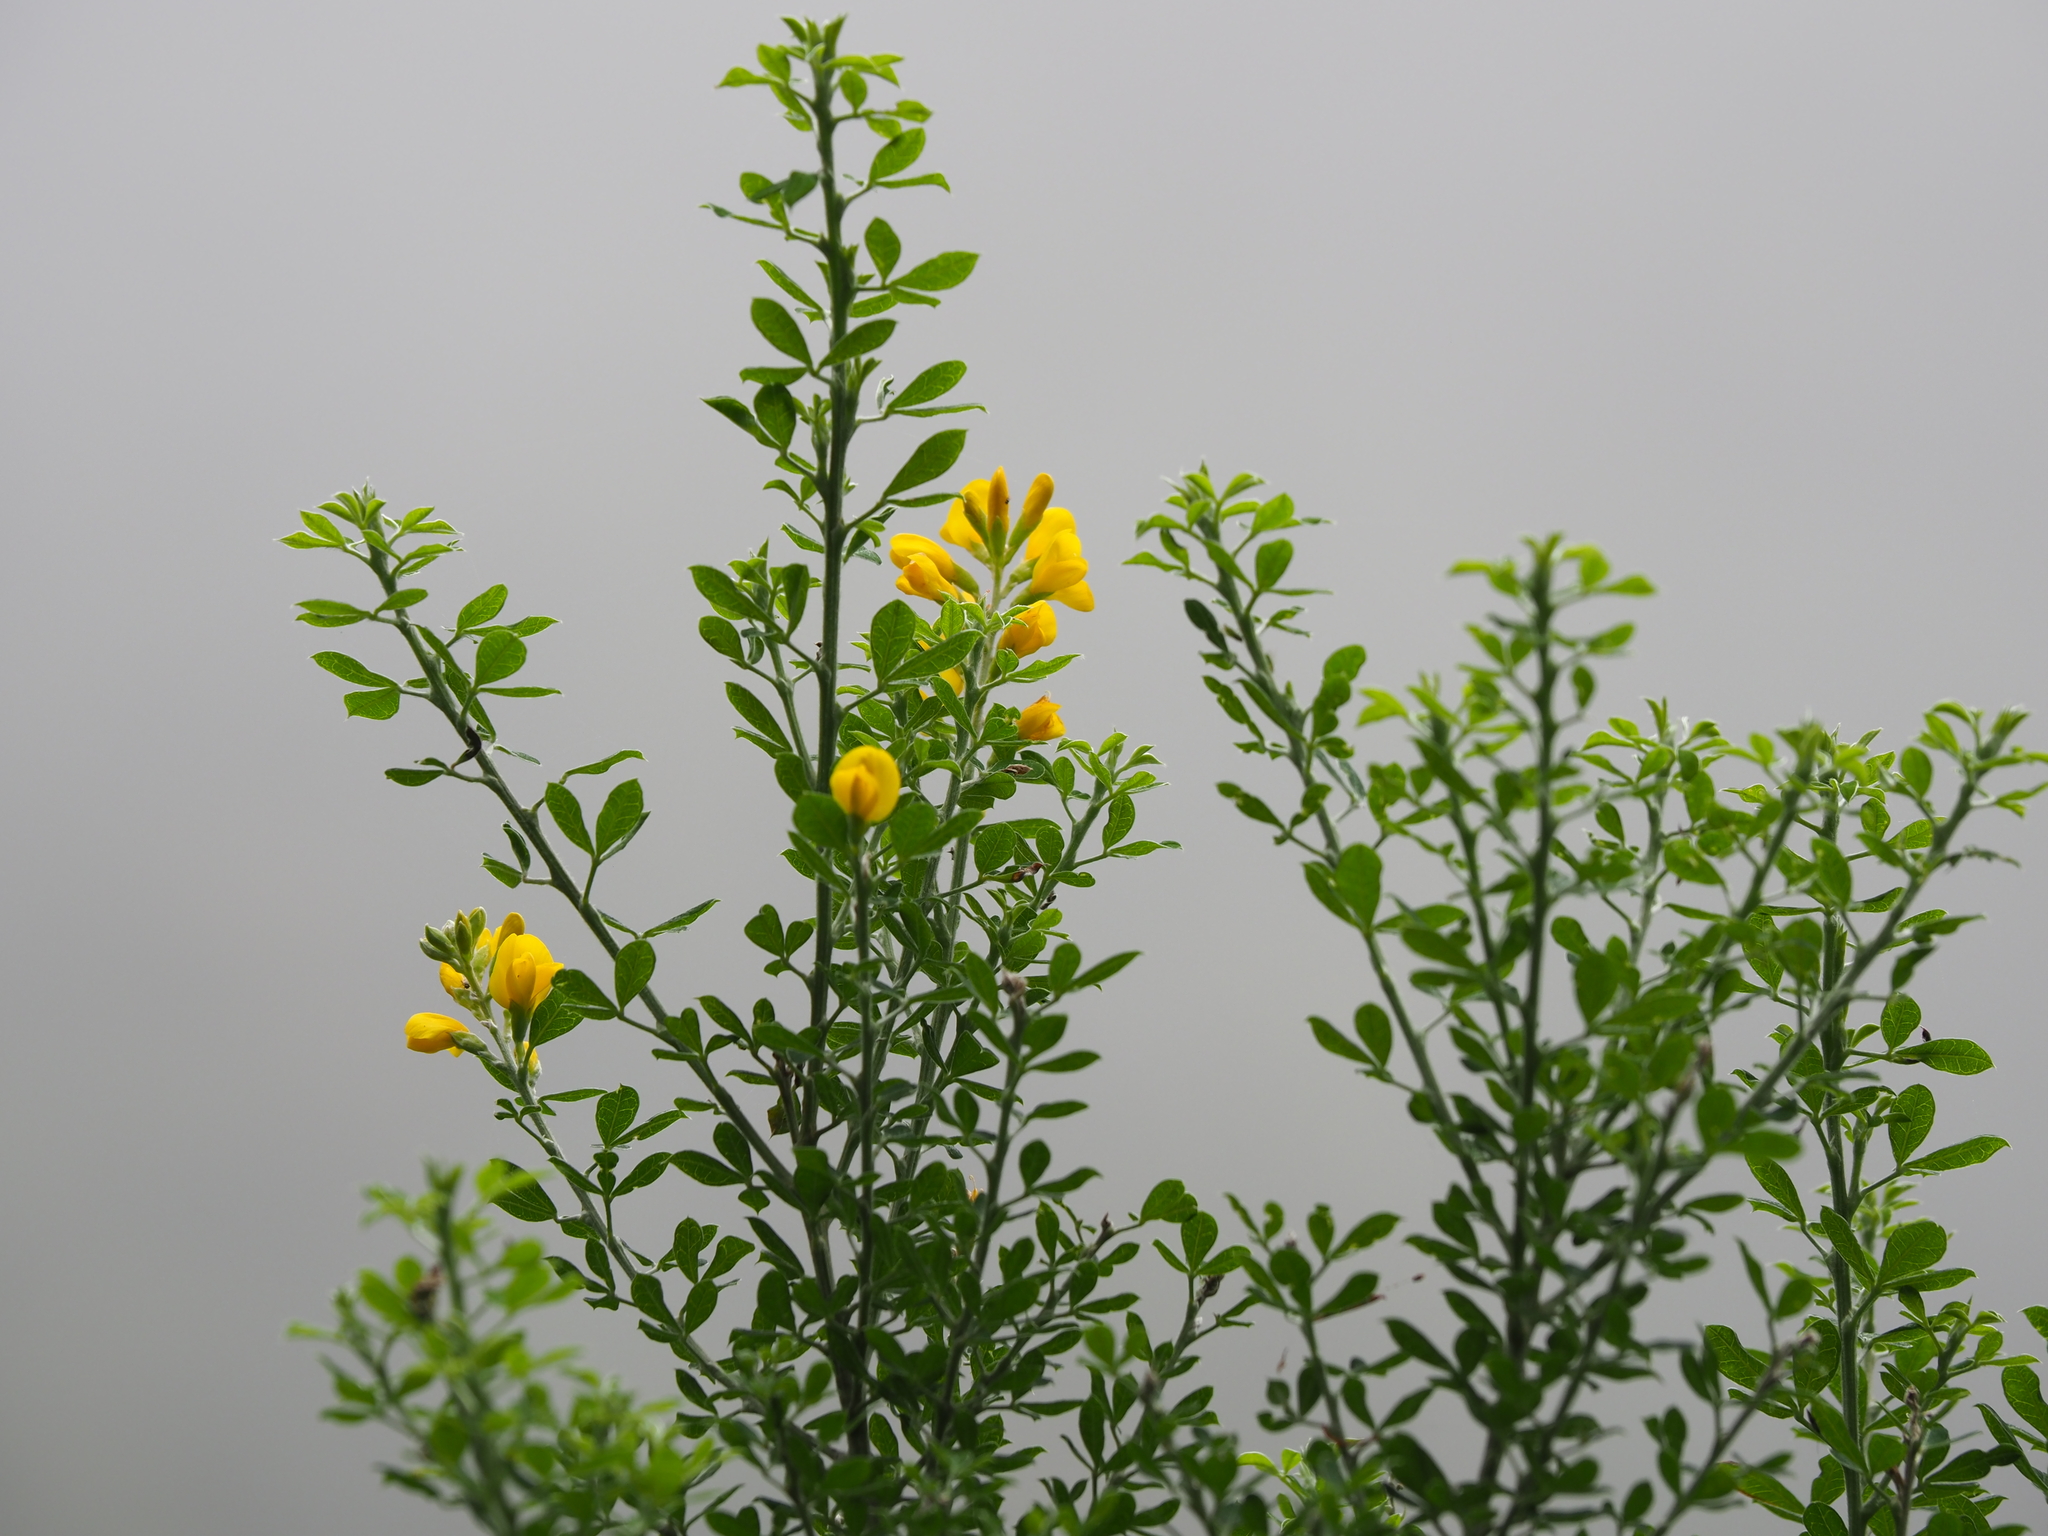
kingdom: Plantae
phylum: Tracheophyta
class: Magnoliopsida
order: Fabales
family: Fabaceae
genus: Genista
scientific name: Genista maderensis
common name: Madeira dyer's greenweed
